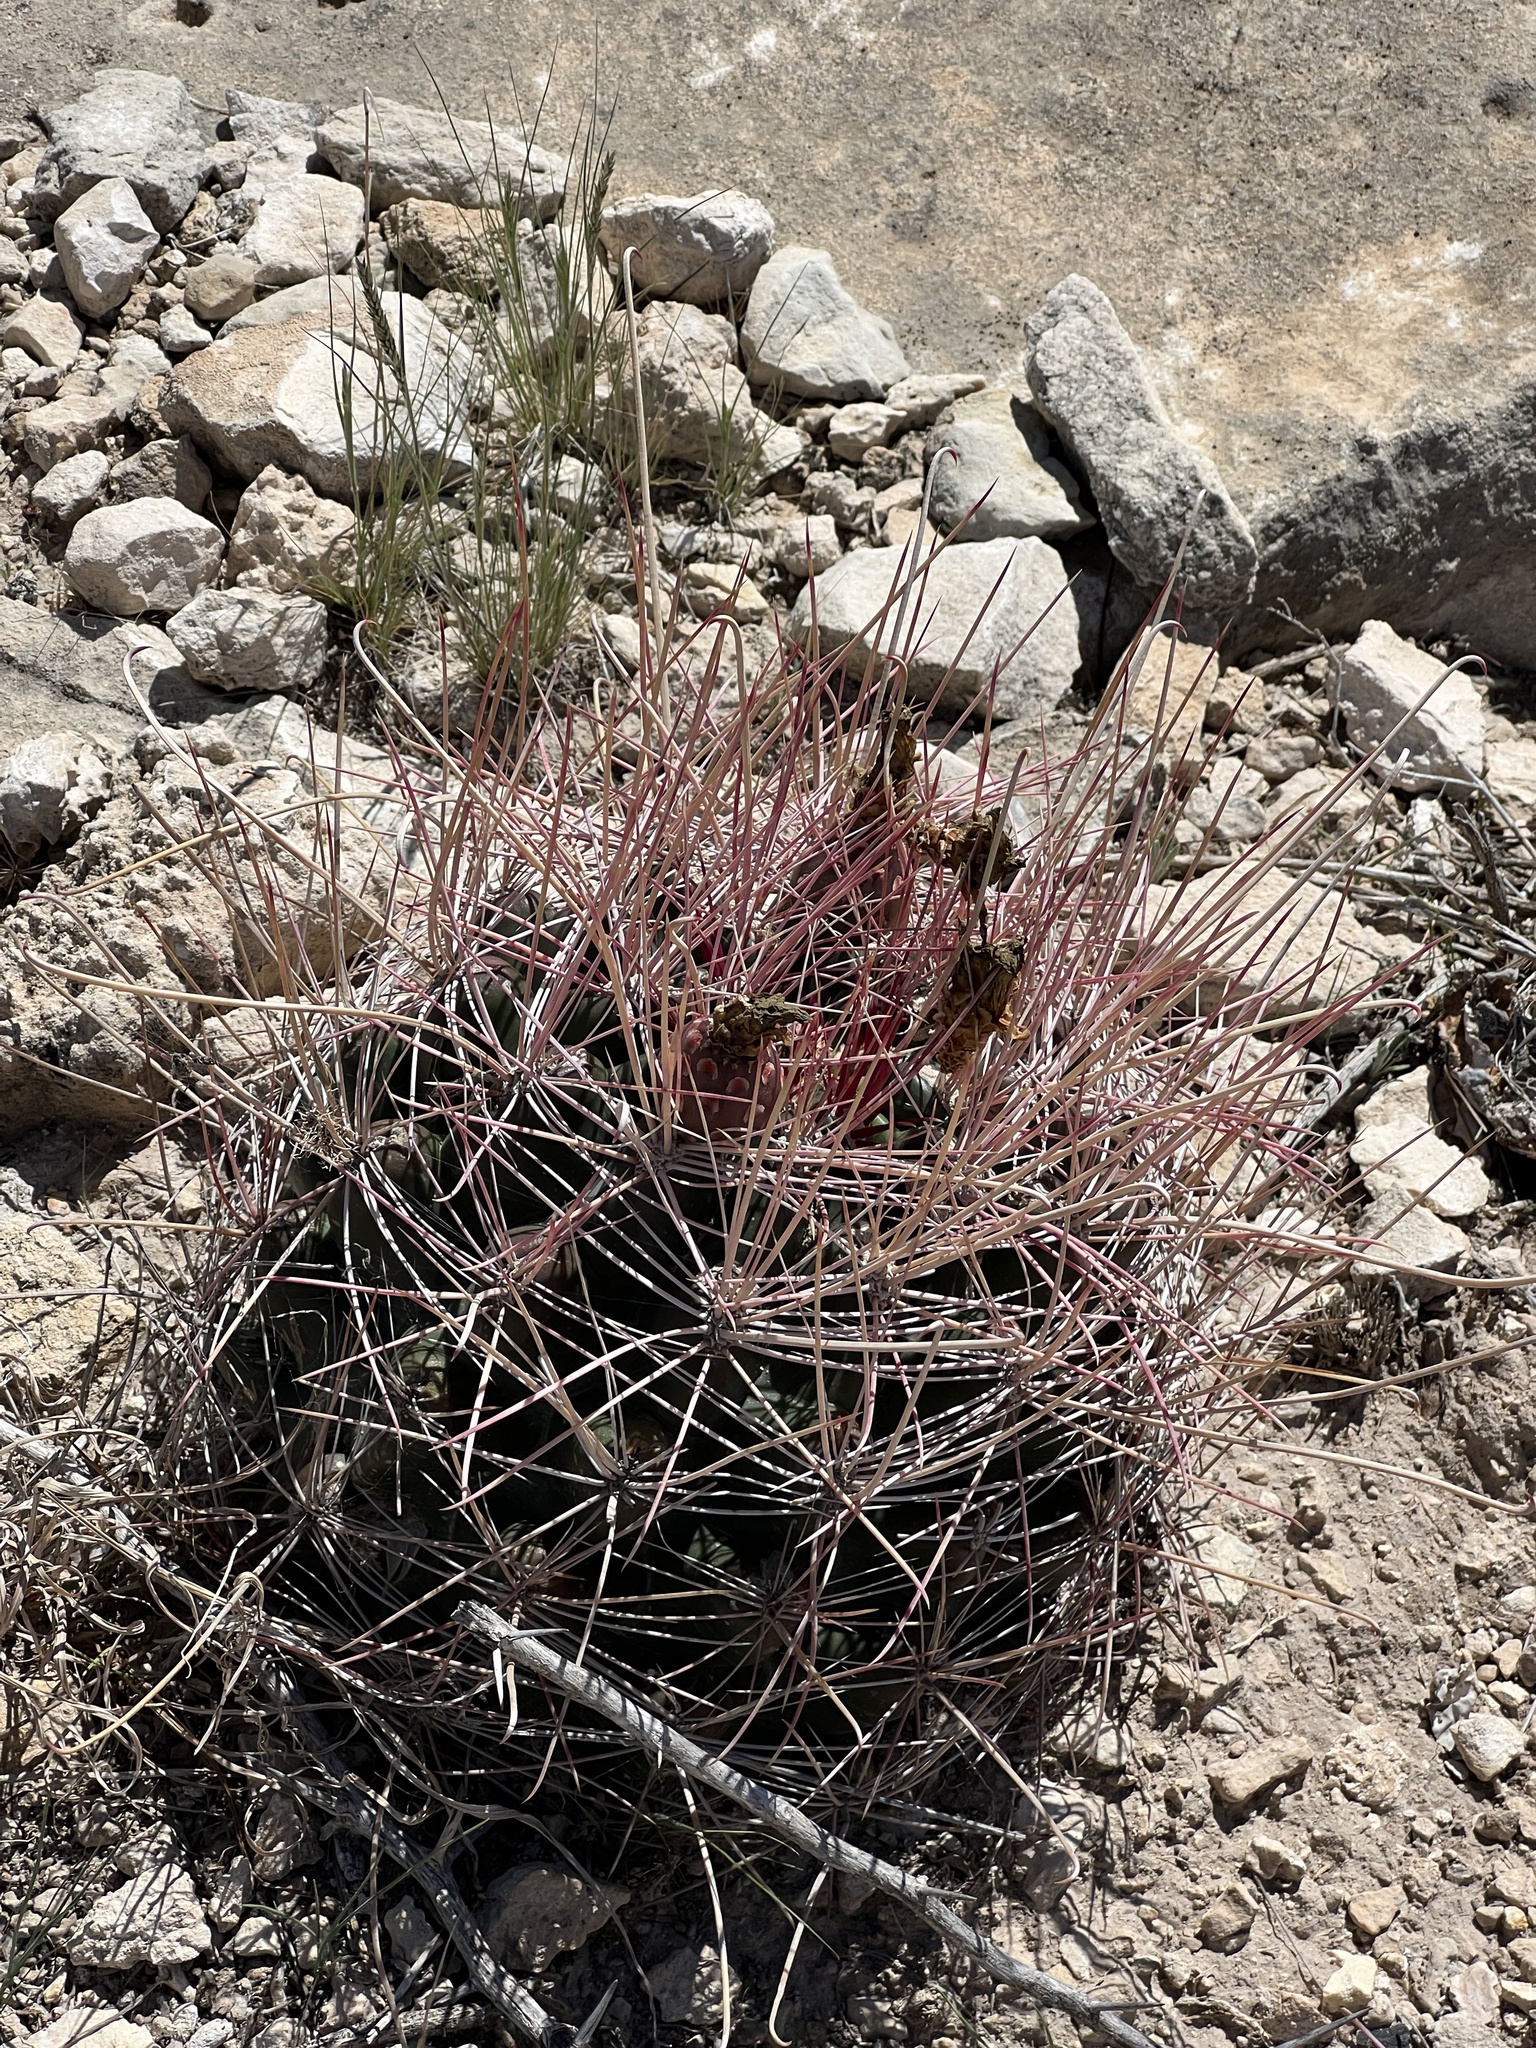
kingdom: Plantae
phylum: Tracheophyta
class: Magnoliopsida
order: Caryophyllales
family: Cactaceae
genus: Bisnaga
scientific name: Bisnaga hamatacantha
